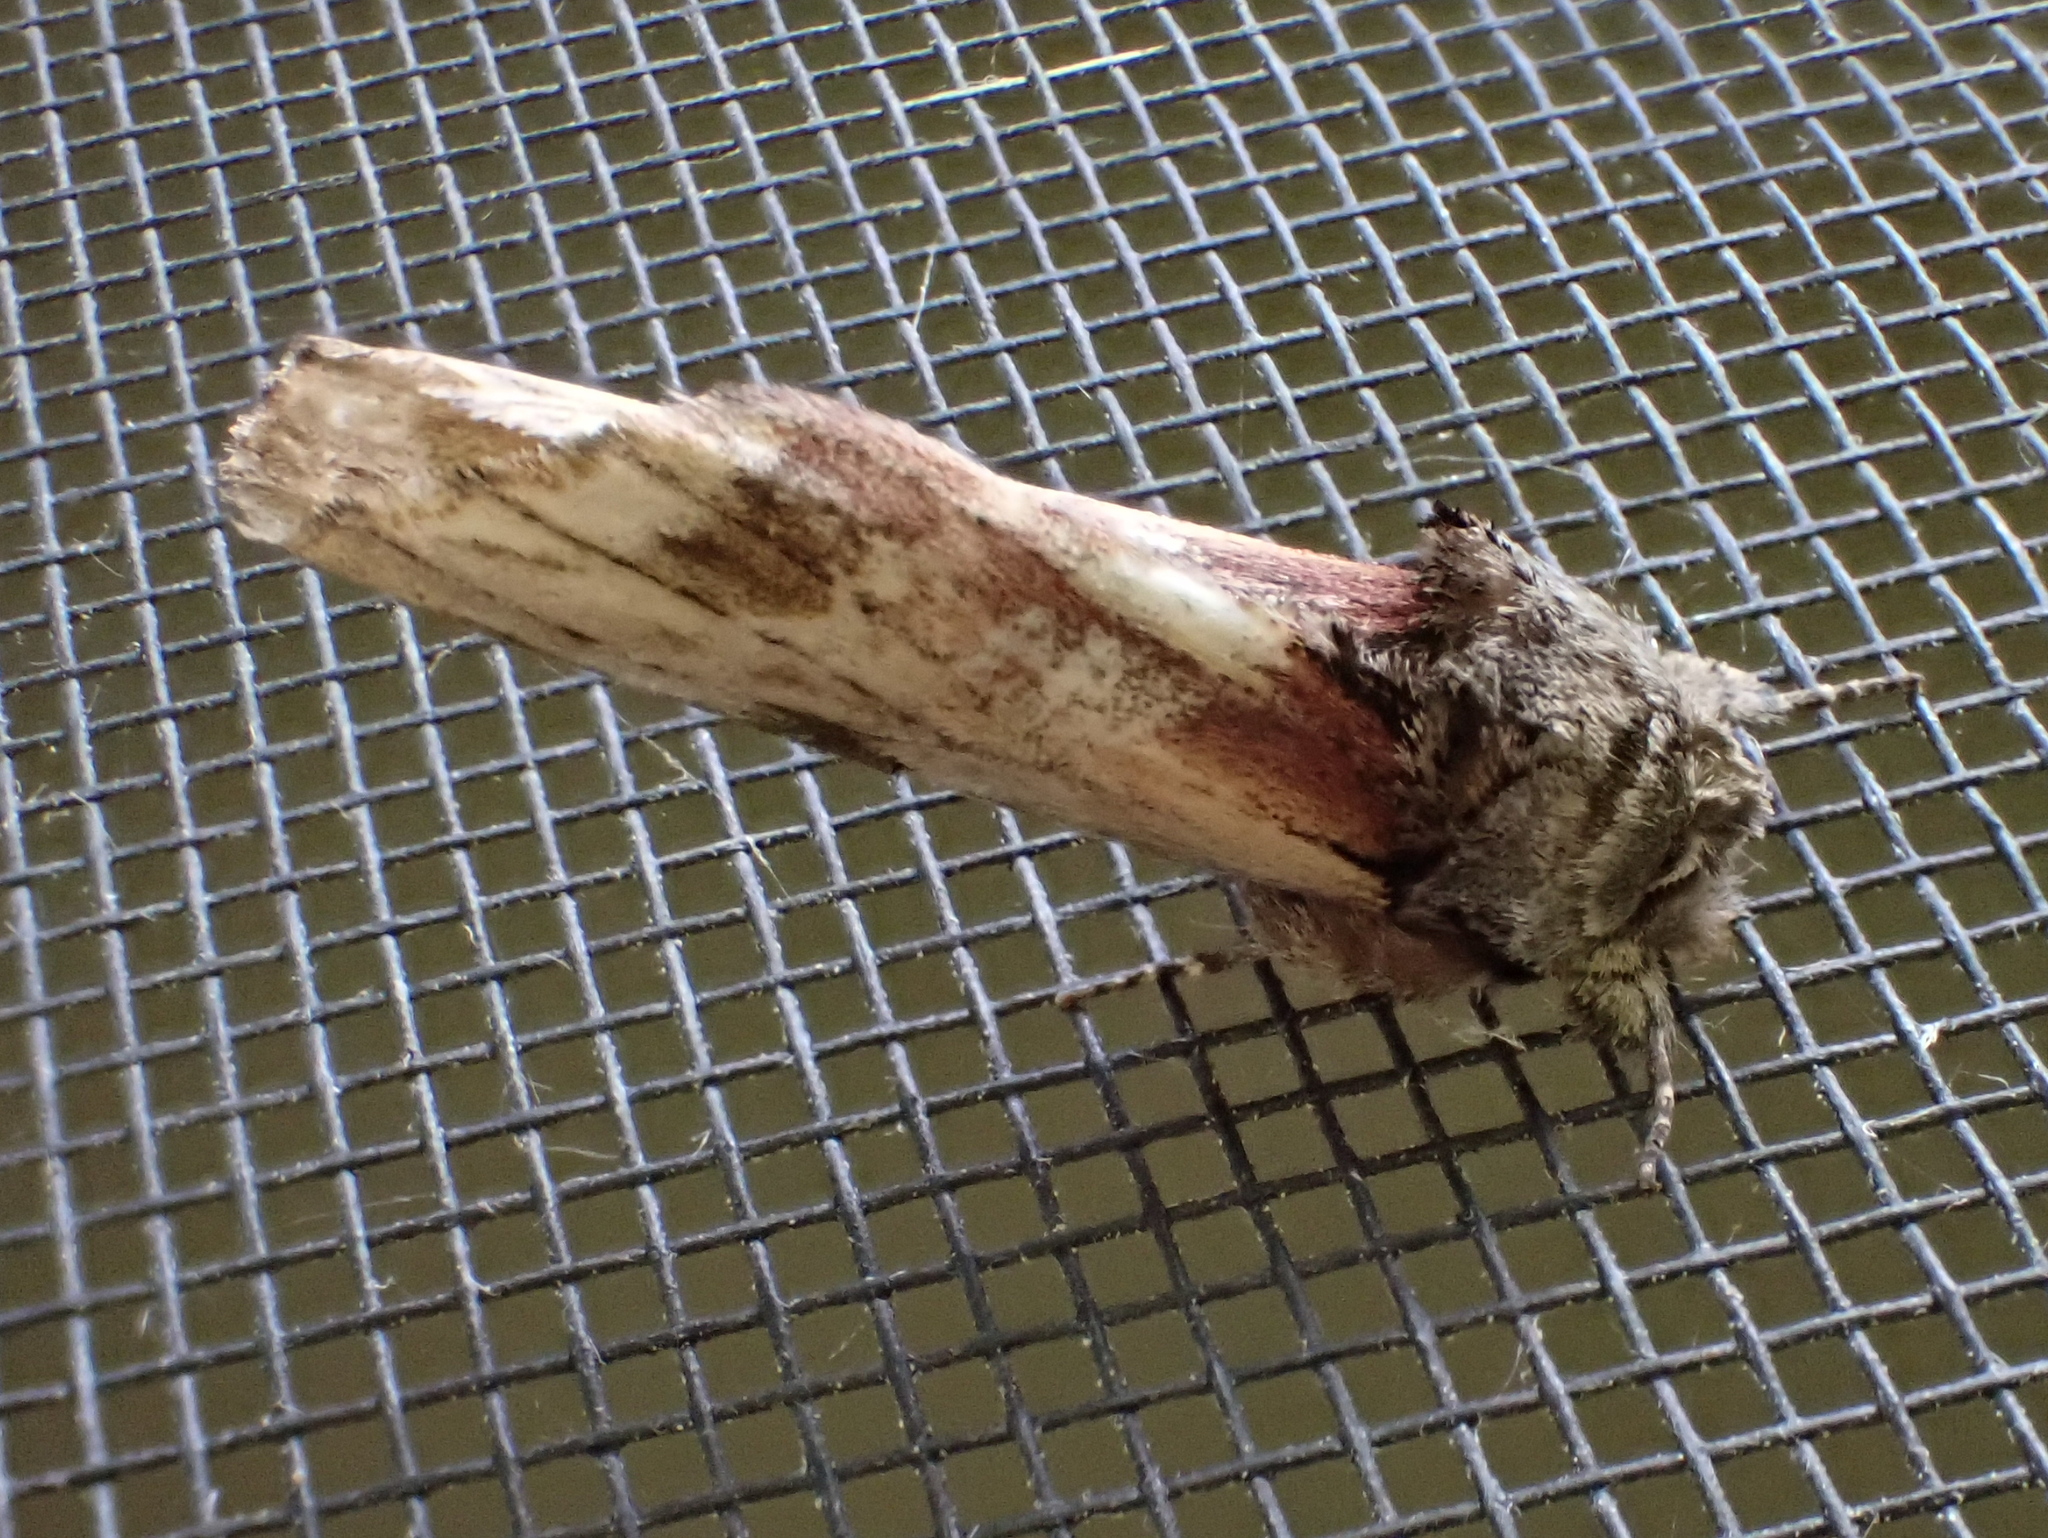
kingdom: Animalia
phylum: Arthropoda
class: Insecta
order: Lepidoptera
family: Notodontidae
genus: Schizura
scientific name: Schizura
